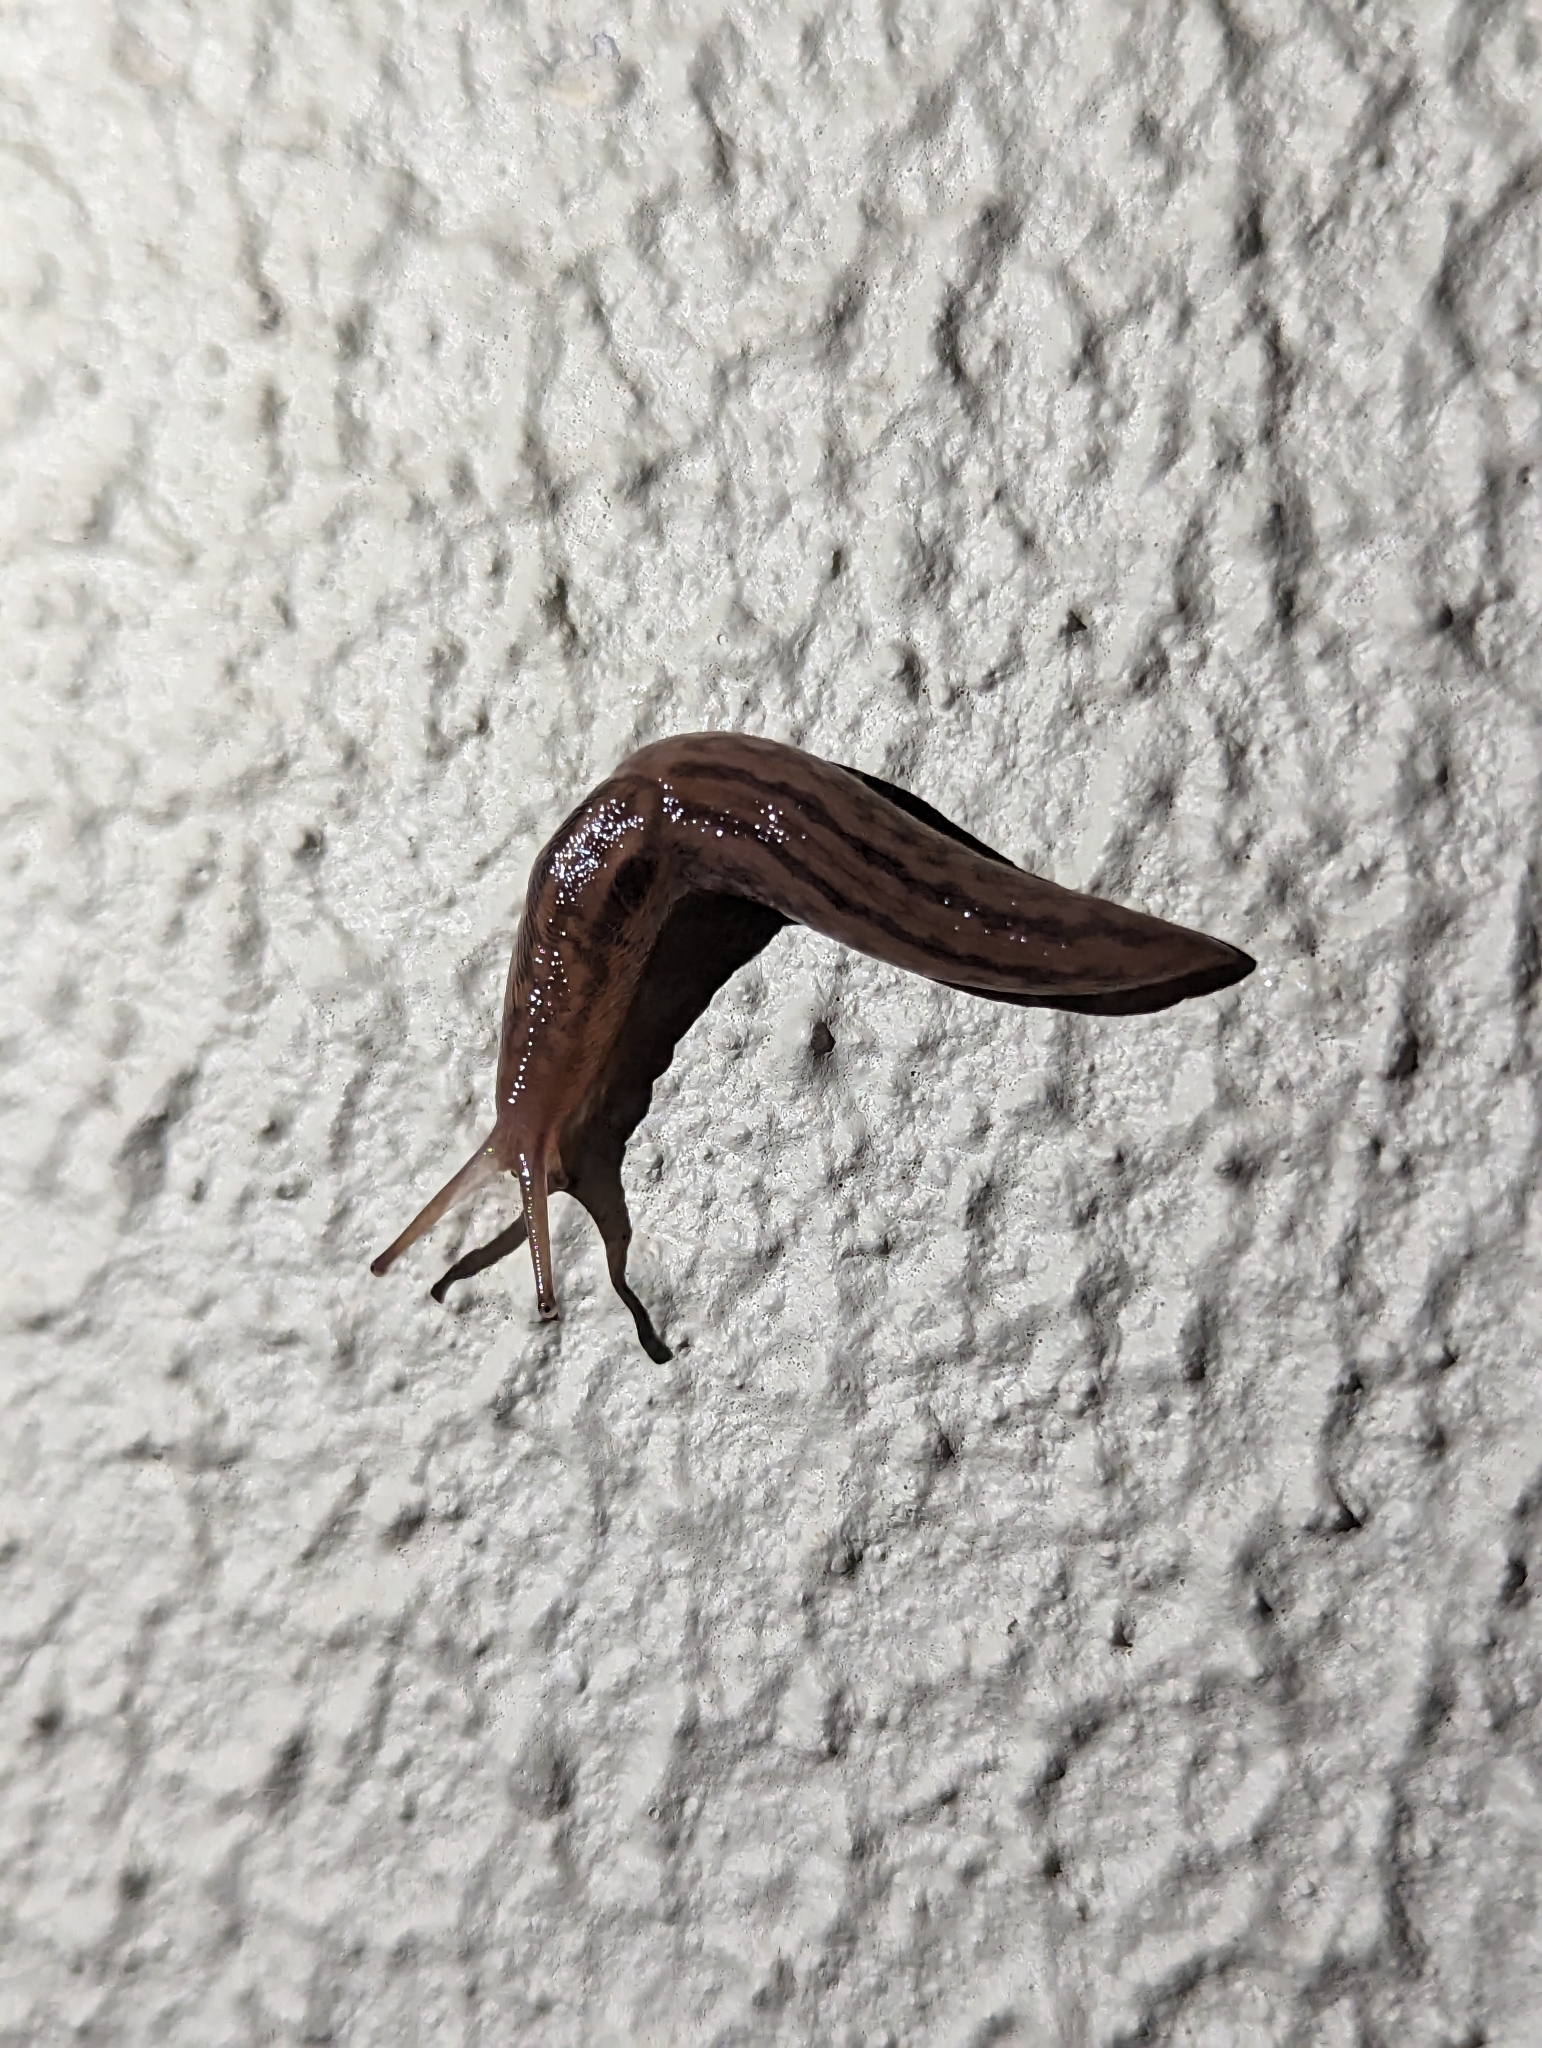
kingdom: Animalia
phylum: Mollusca
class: Gastropoda
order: Stylommatophora
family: Limacidae
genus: Ambigolimax
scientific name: Ambigolimax
